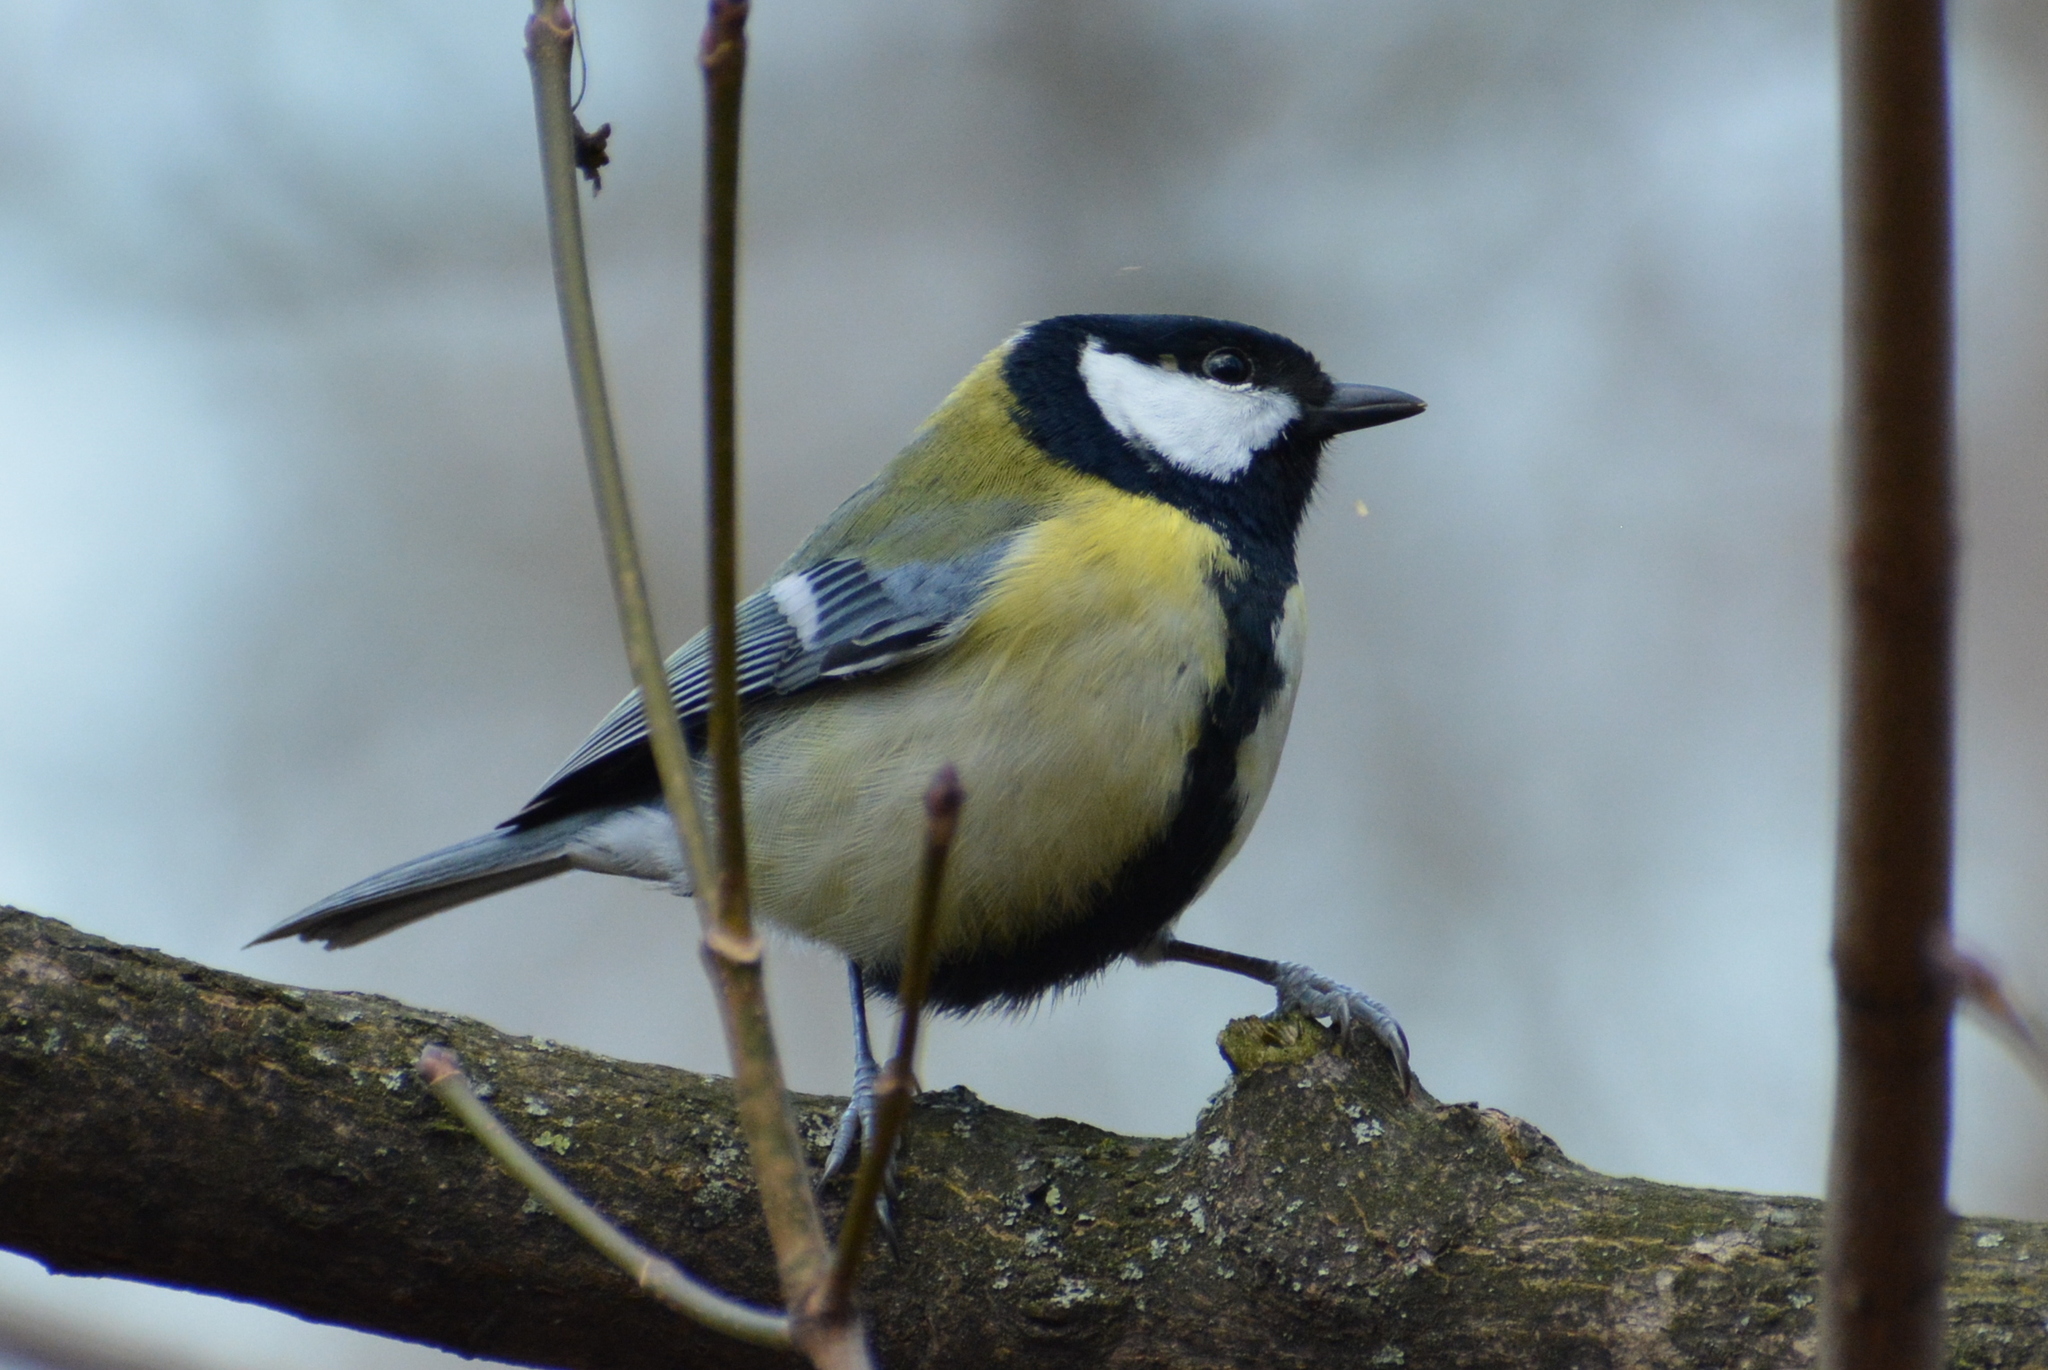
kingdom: Animalia
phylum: Chordata
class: Aves
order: Passeriformes
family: Paridae
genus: Parus
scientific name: Parus major
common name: Great tit
